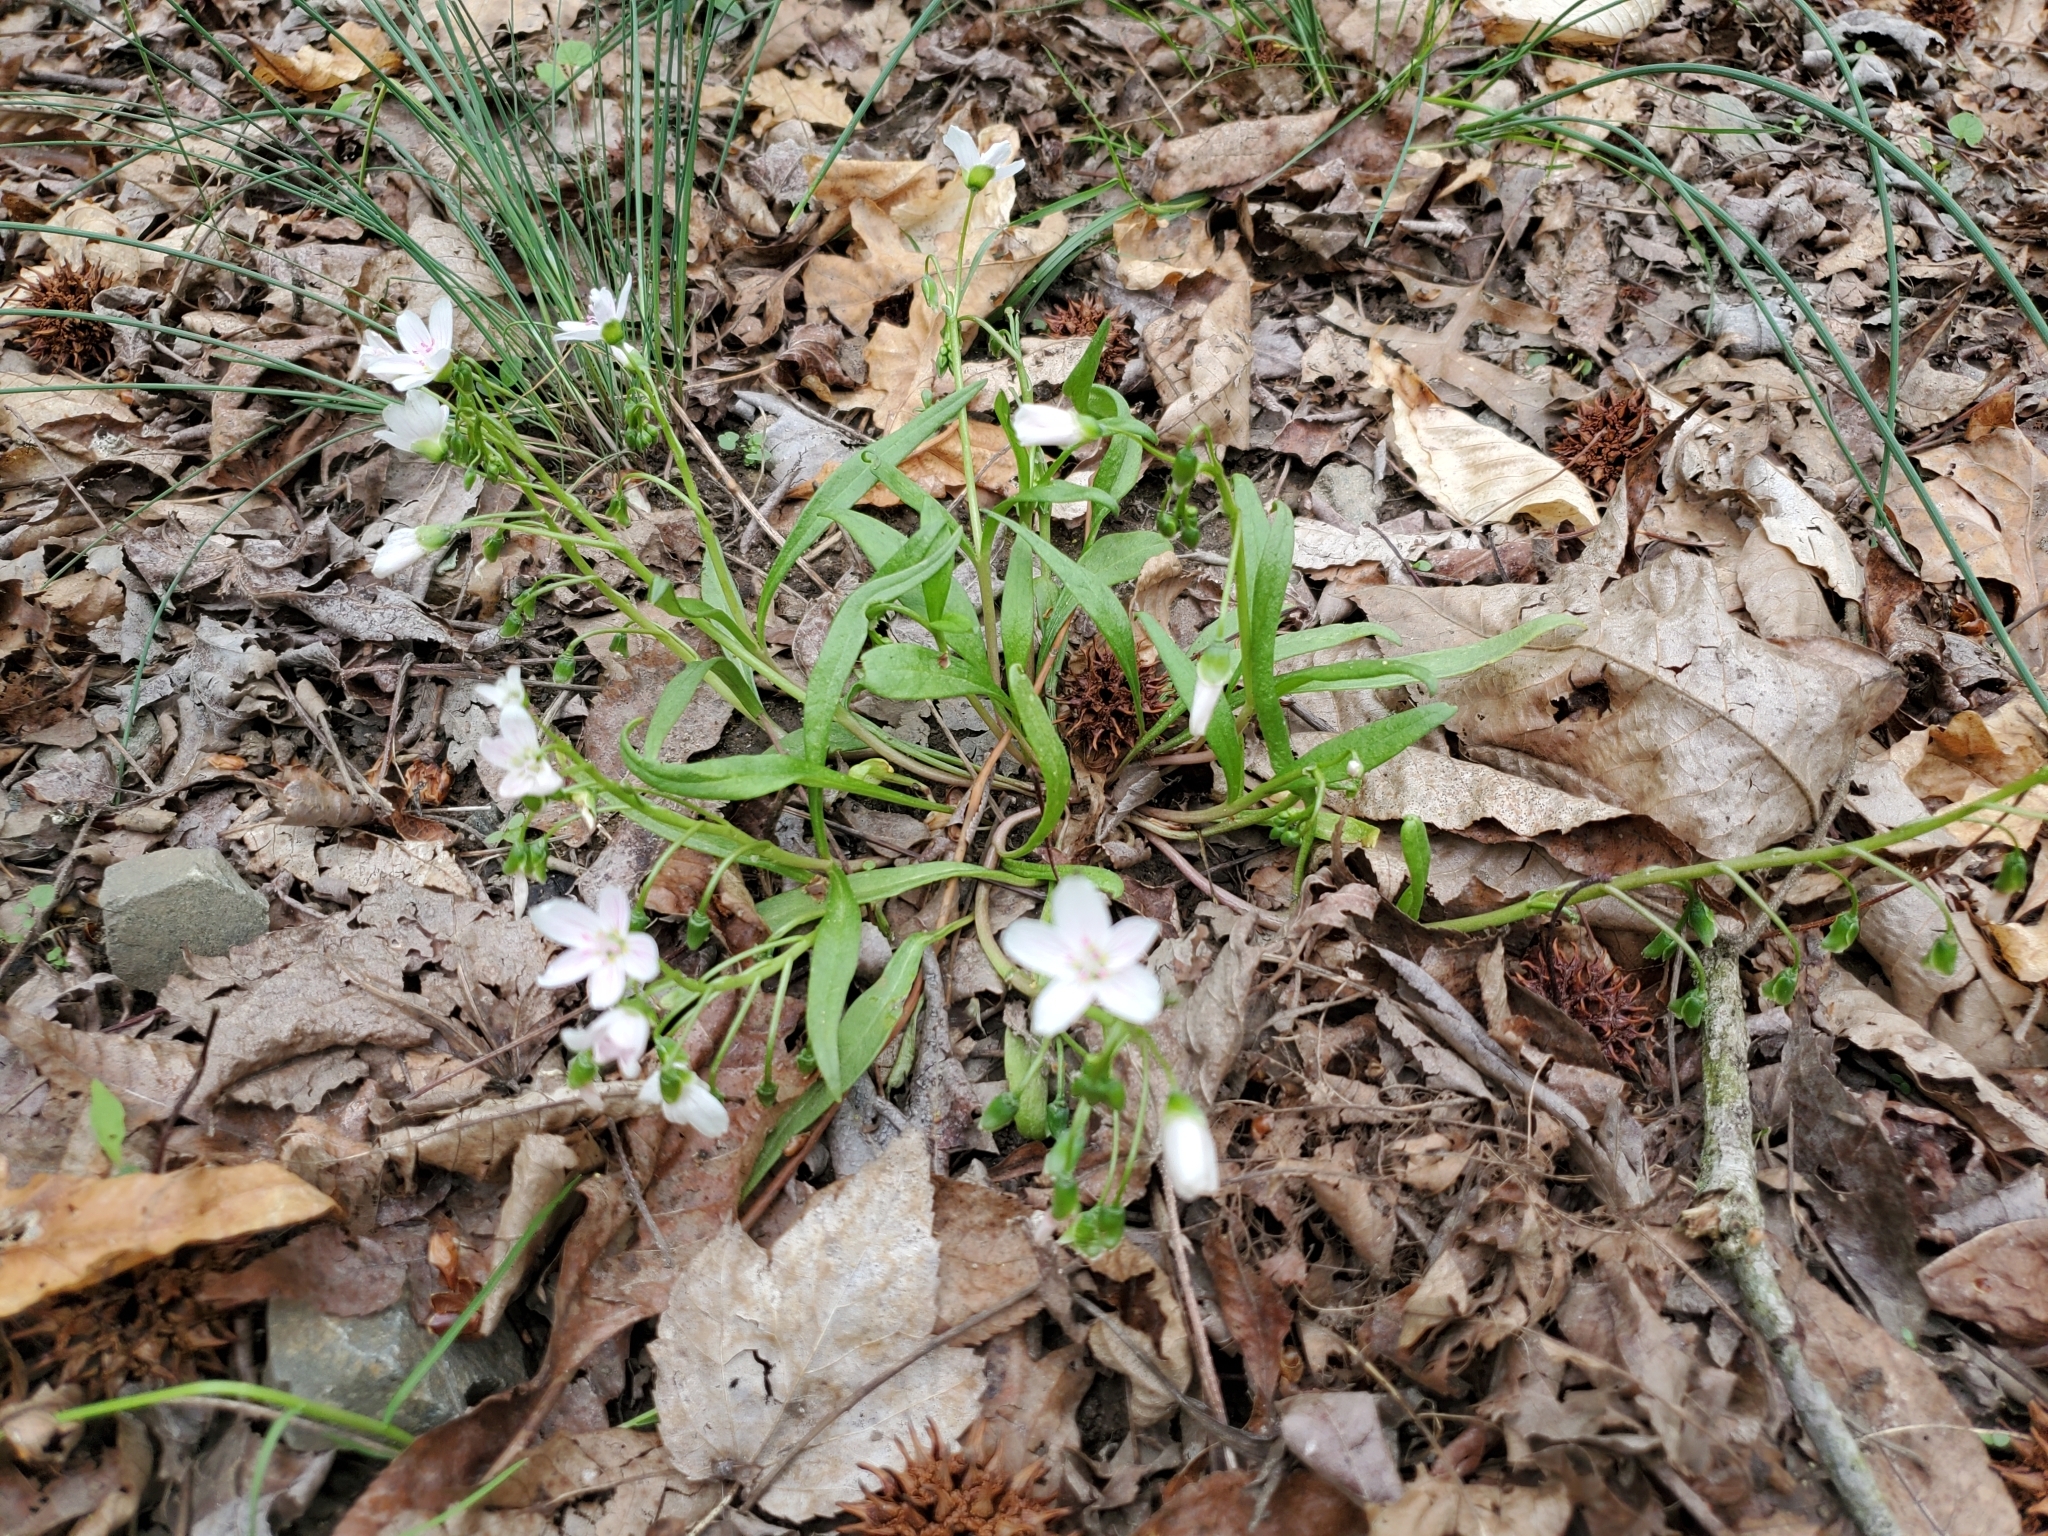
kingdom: Plantae
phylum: Tracheophyta
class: Magnoliopsida
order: Caryophyllales
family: Montiaceae
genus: Claytonia
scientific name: Claytonia virginica
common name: Virginia springbeauty
